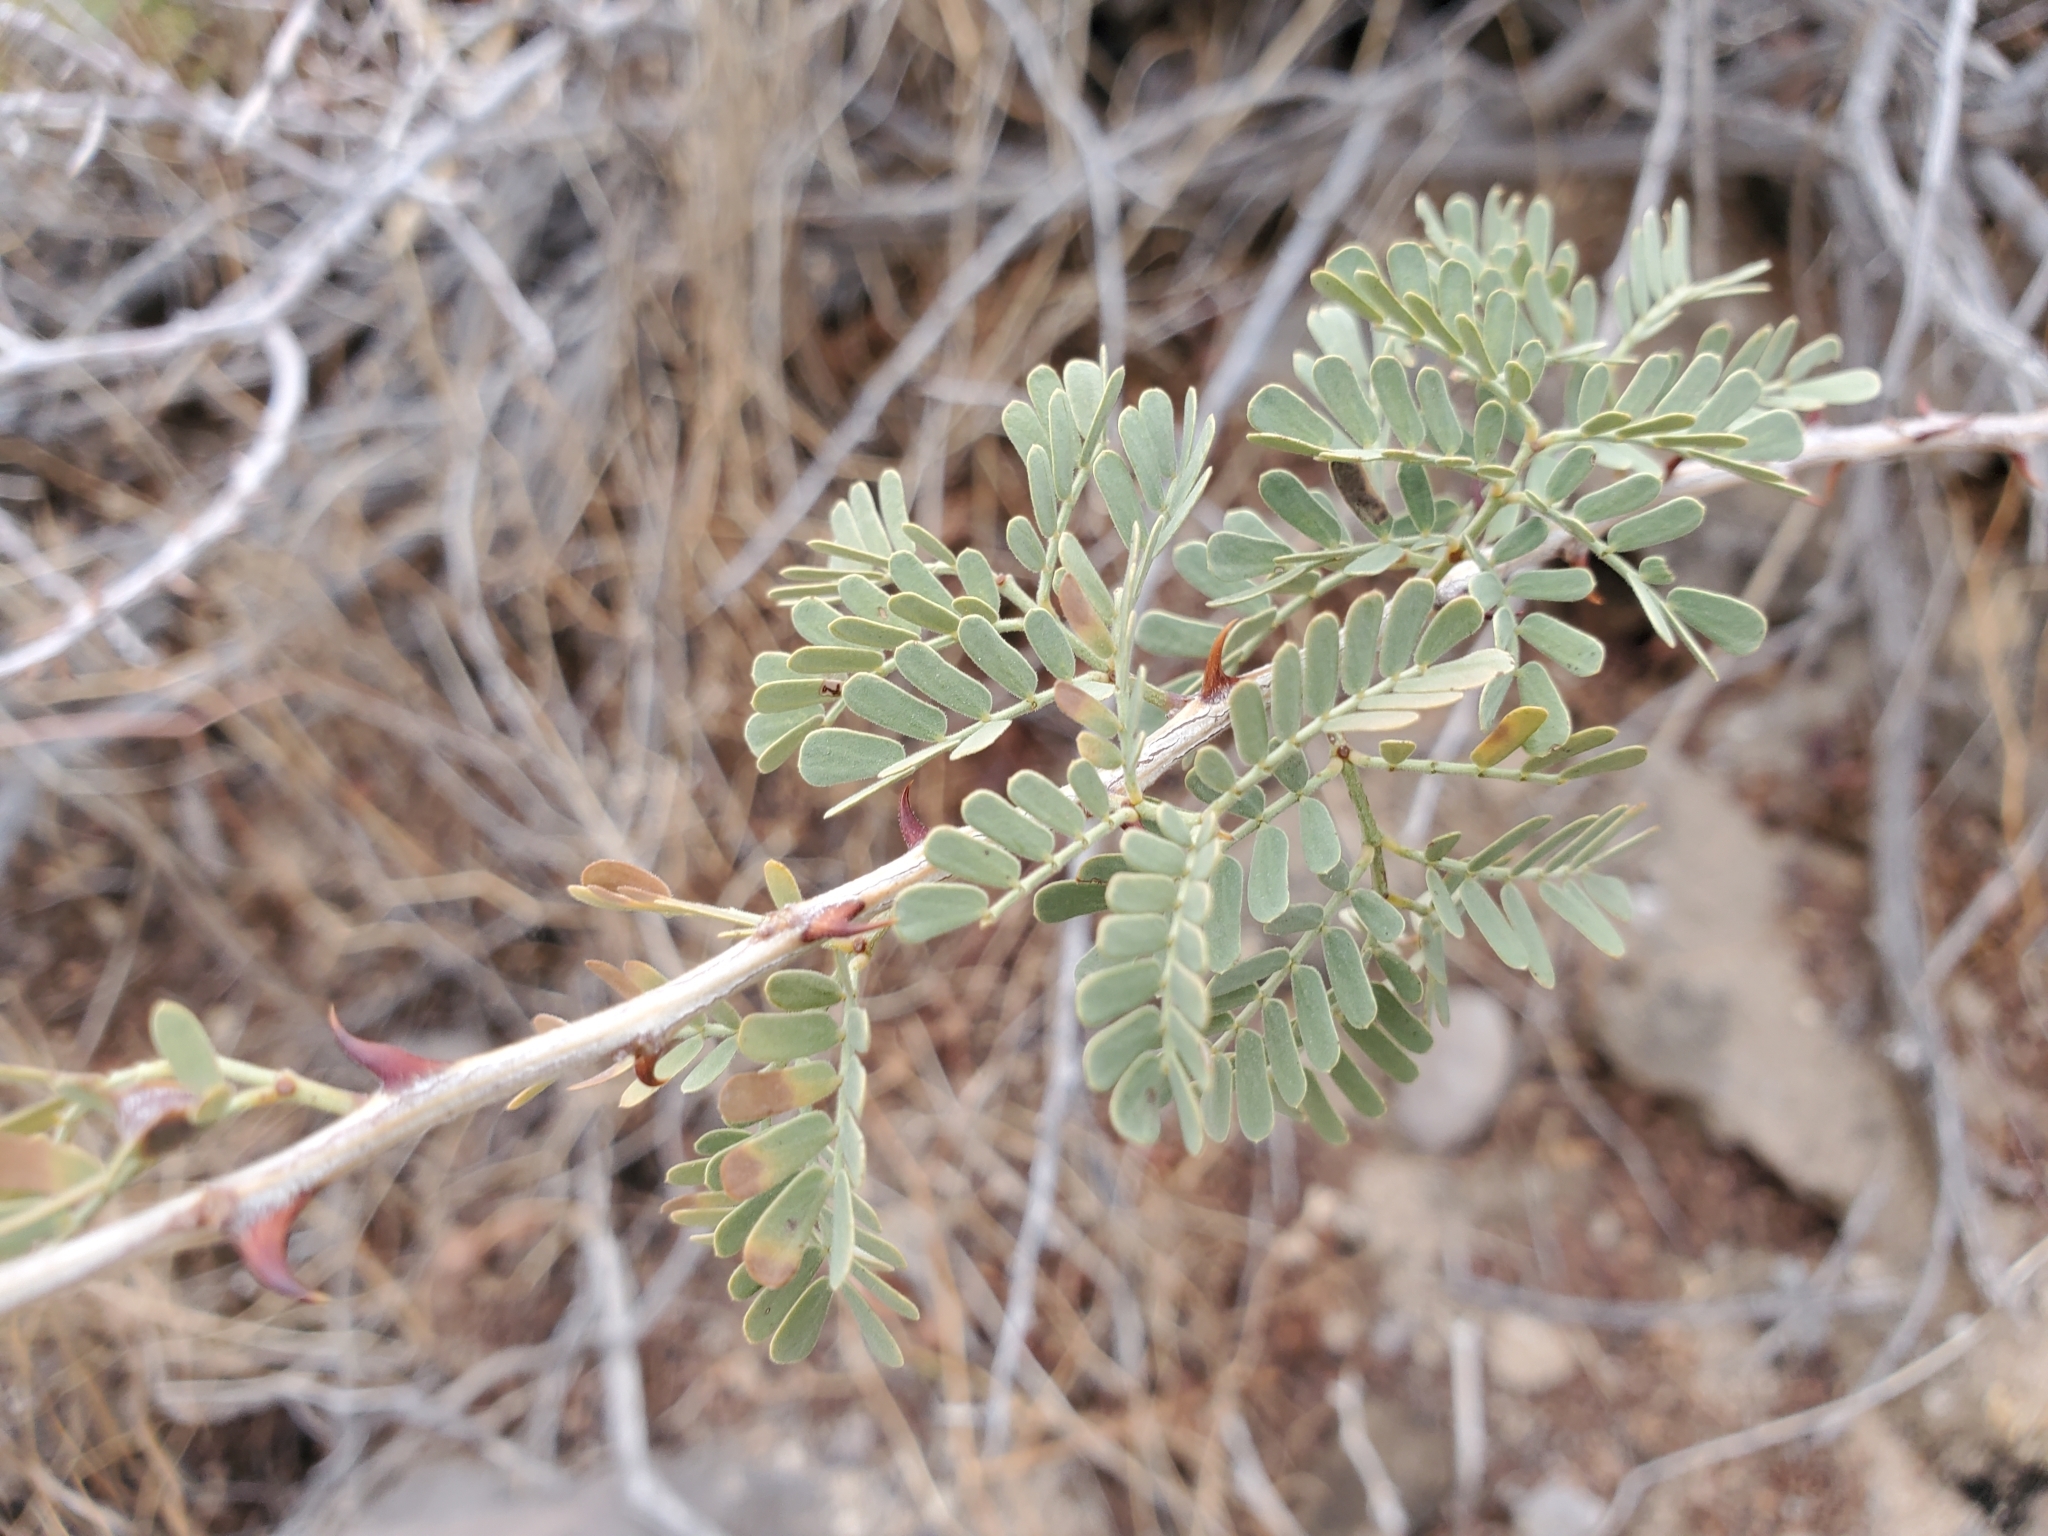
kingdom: Plantae
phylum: Tracheophyta
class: Magnoliopsida
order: Fabales
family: Fabaceae
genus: Senegalia
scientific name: Senegalia greggii
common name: Texas-mimosa
